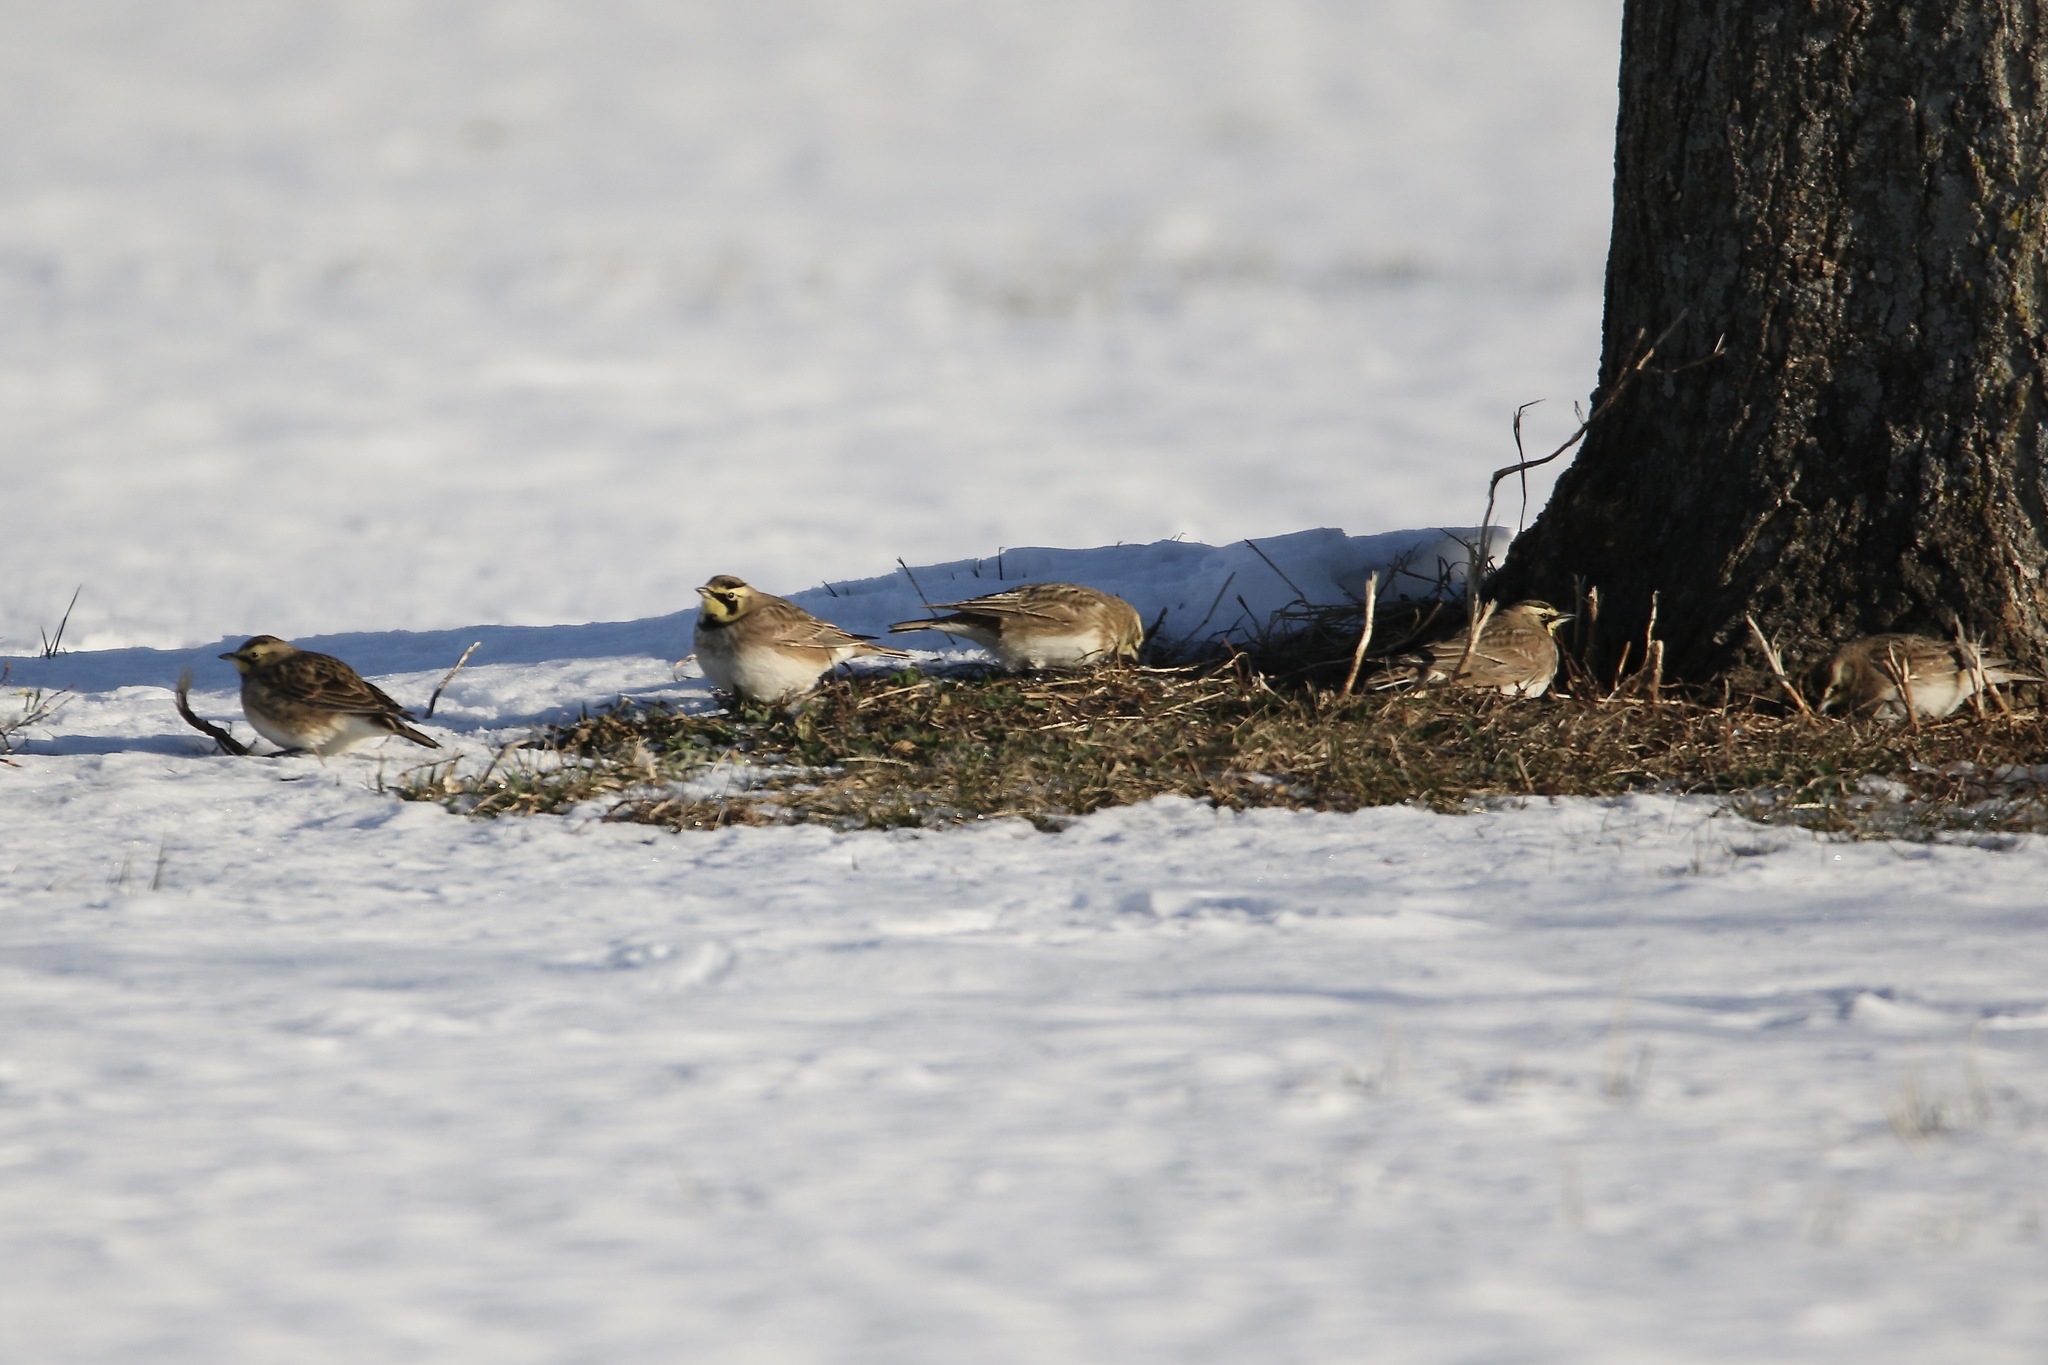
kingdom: Animalia
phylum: Chordata
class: Aves
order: Passeriformes
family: Alaudidae
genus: Eremophila
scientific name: Eremophila alpestris
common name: Horned lark
